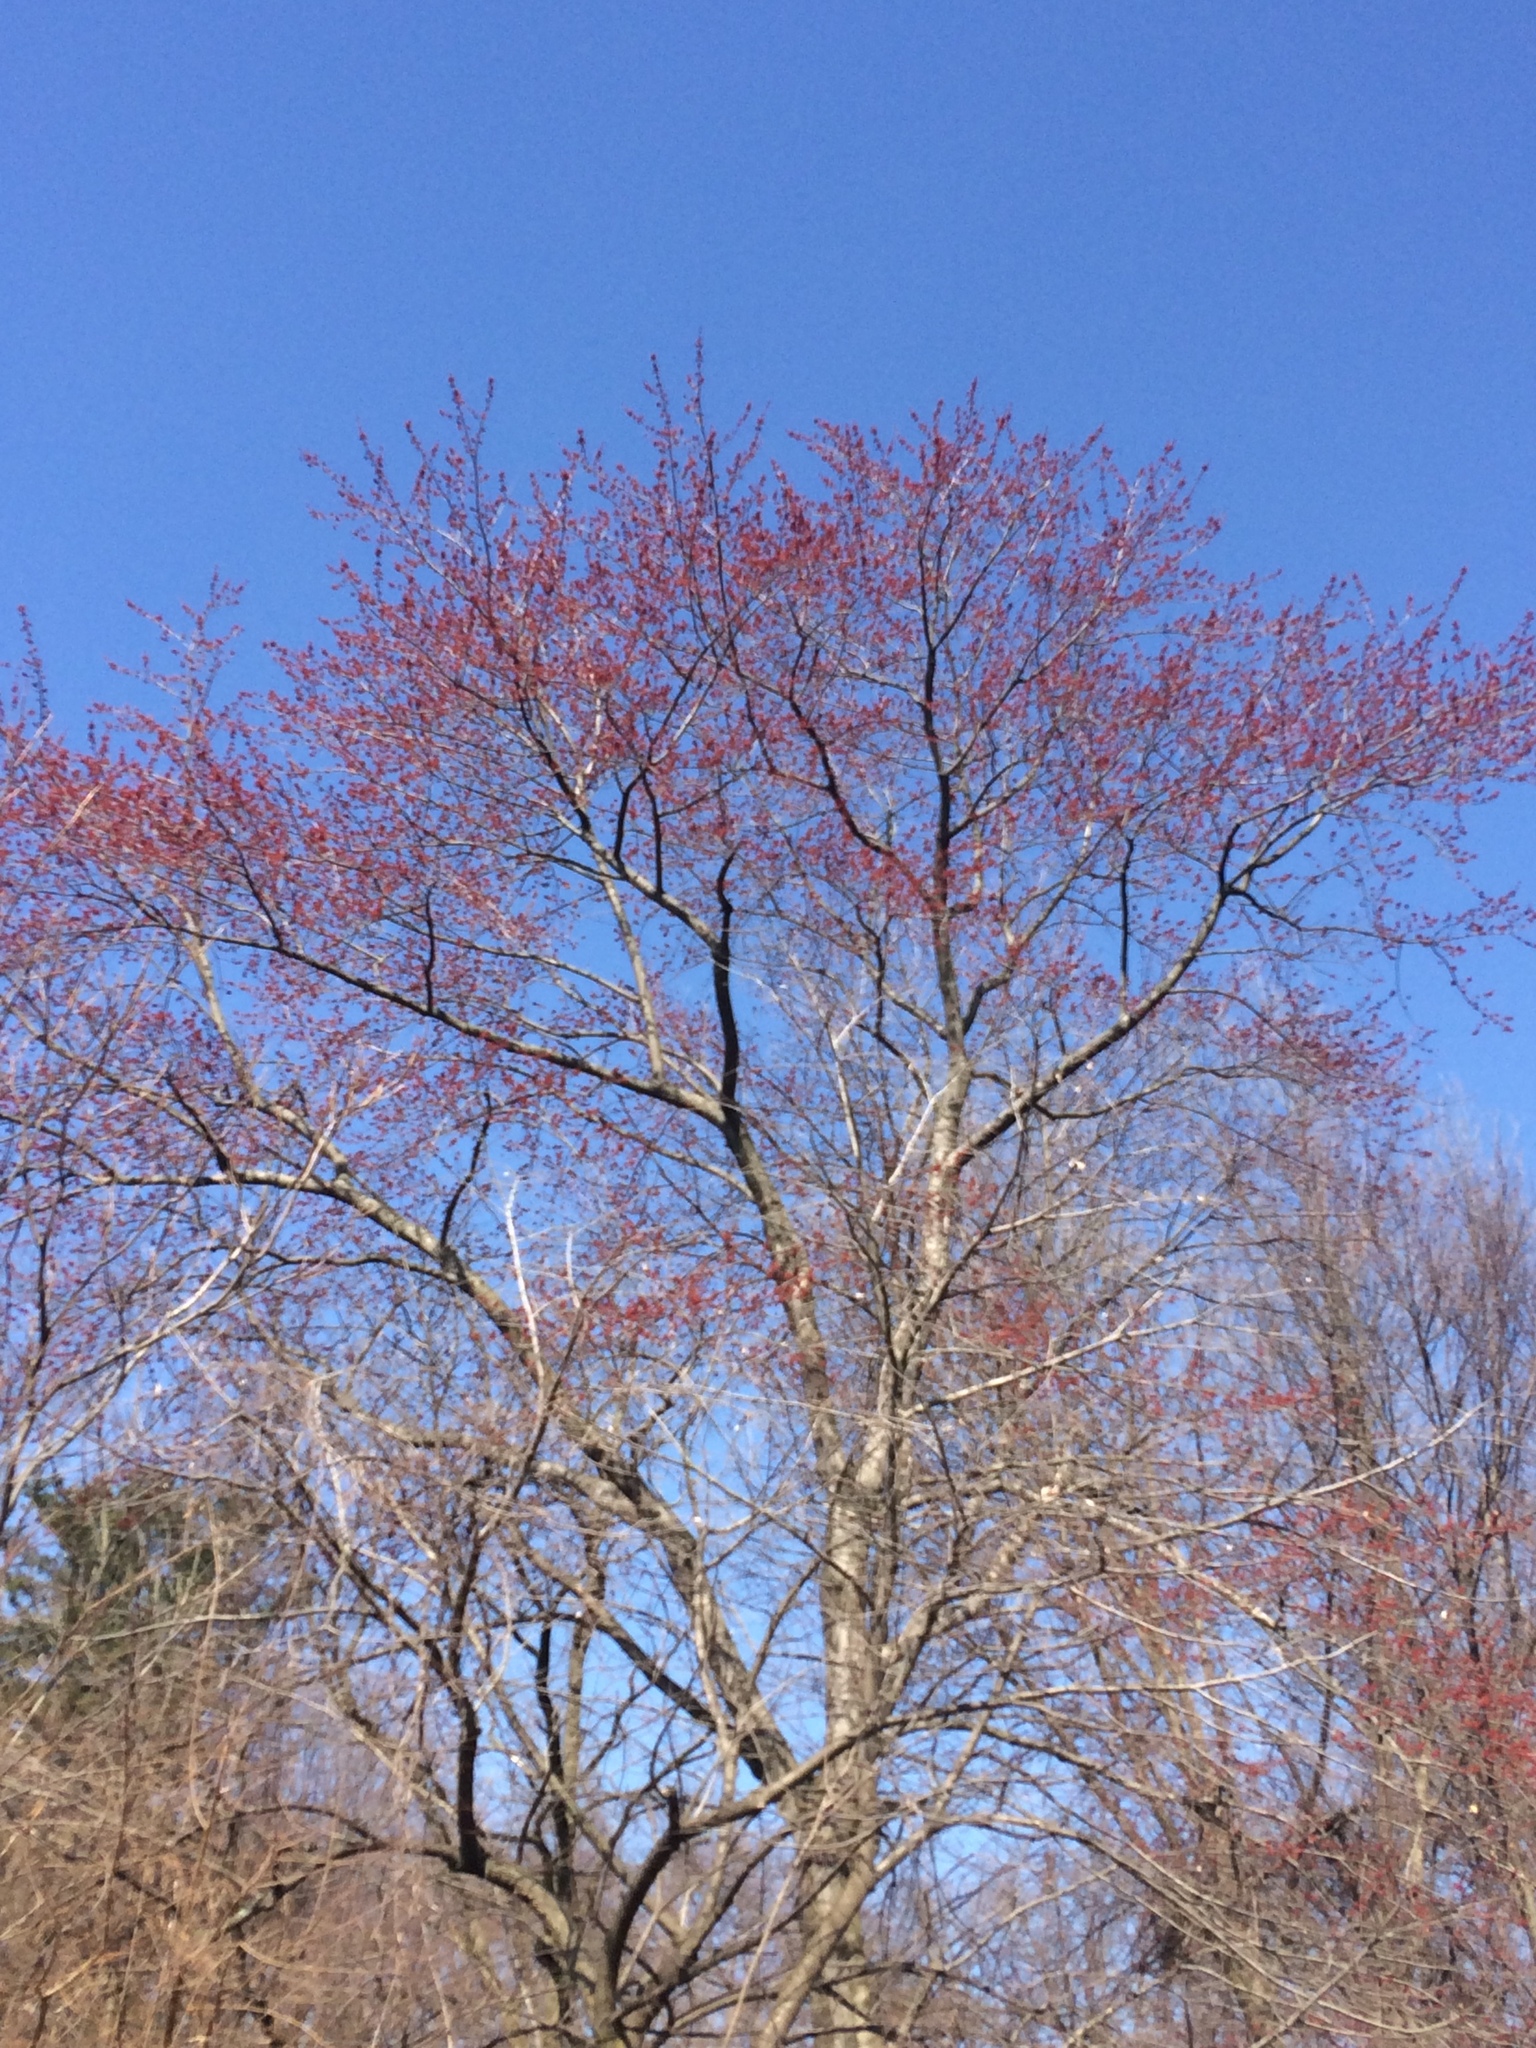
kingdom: Plantae
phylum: Tracheophyta
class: Magnoliopsida
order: Sapindales
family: Sapindaceae
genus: Acer
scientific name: Acer rubrum
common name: Red maple
